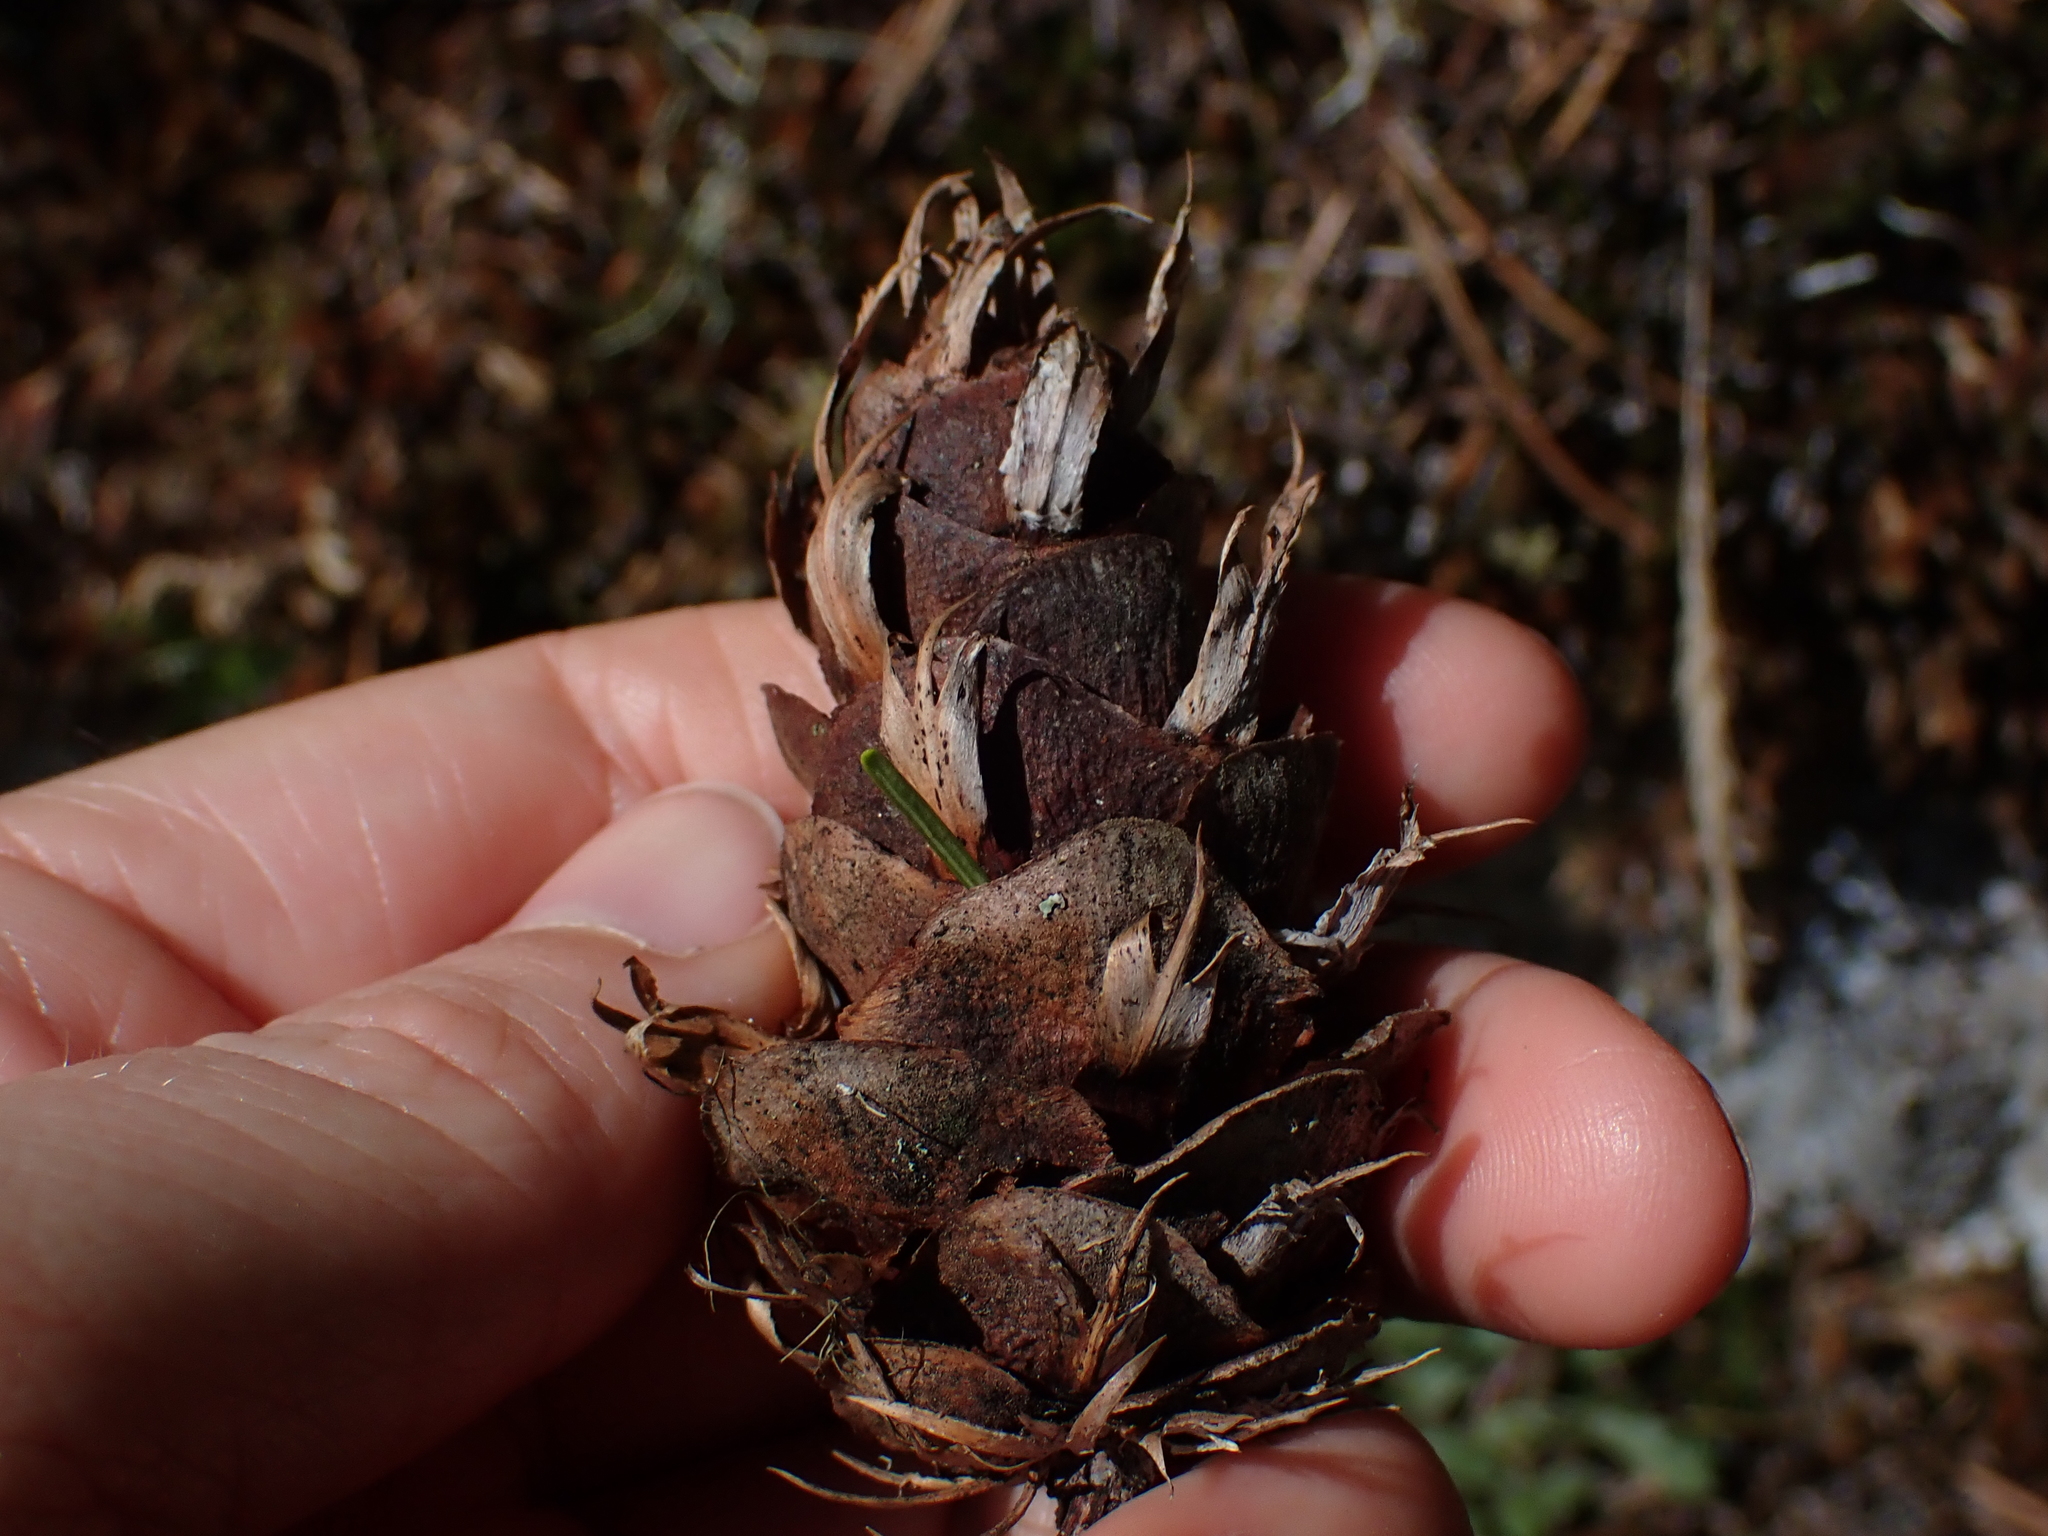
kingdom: Plantae
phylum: Tracheophyta
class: Pinopsida
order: Pinales
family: Pinaceae
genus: Pseudotsuga
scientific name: Pseudotsuga menziesii
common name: Douglas fir
